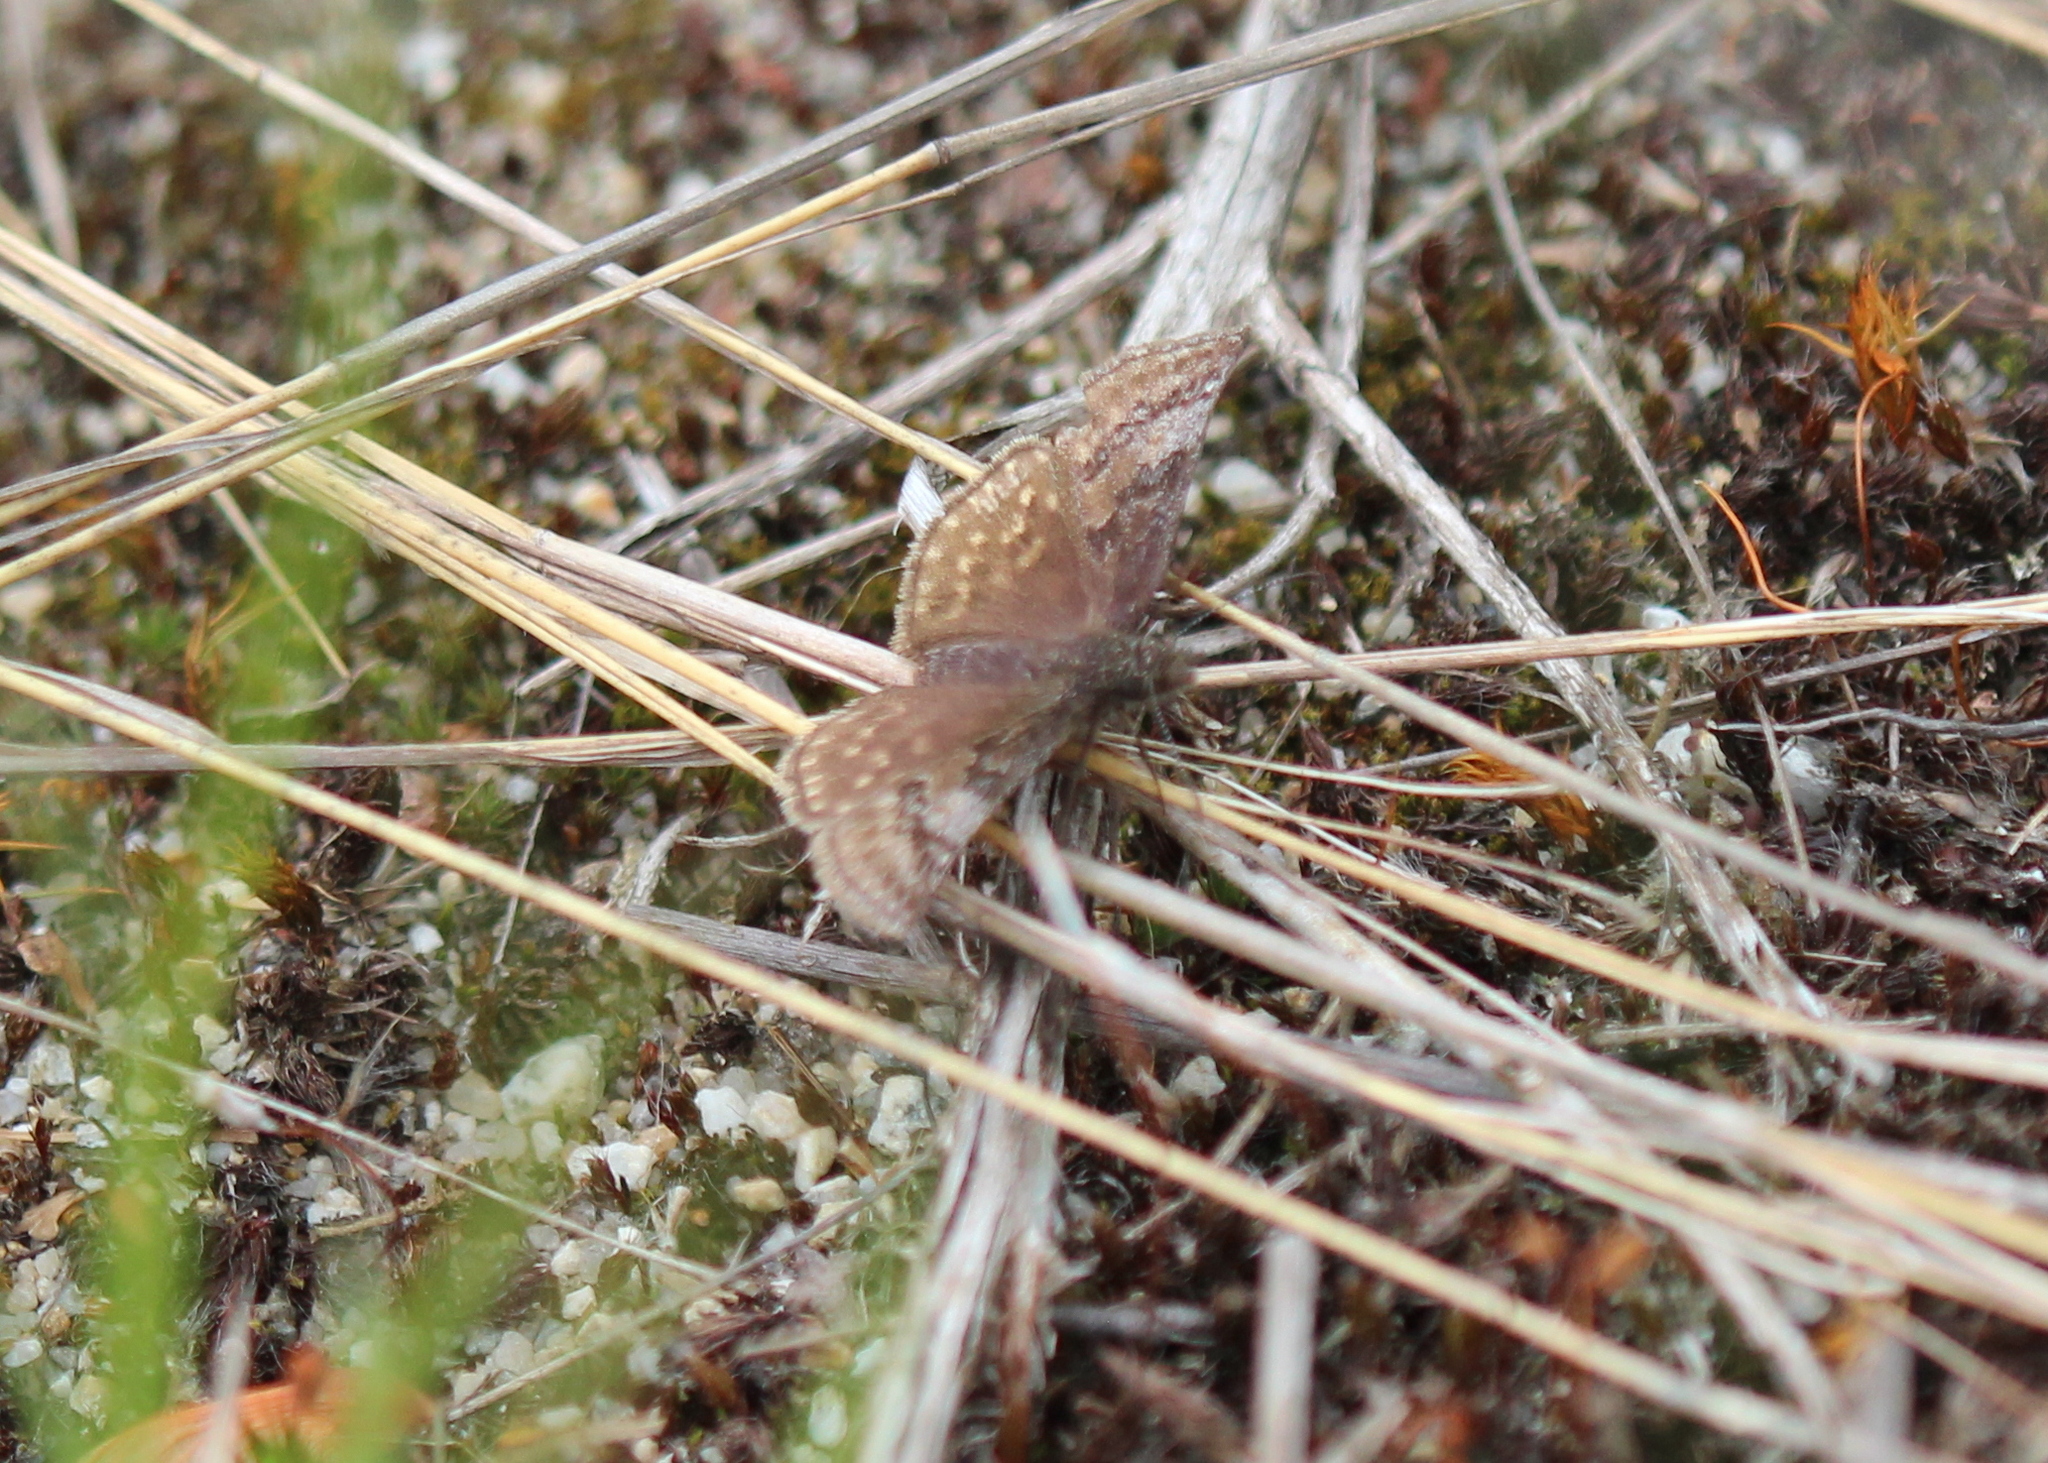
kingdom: Animalia
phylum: Arthropoda
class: Insecta
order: Lepidoptera
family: Hesperiidae
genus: Erynnis
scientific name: Erynnis icelus
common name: Dreamy duskywing
